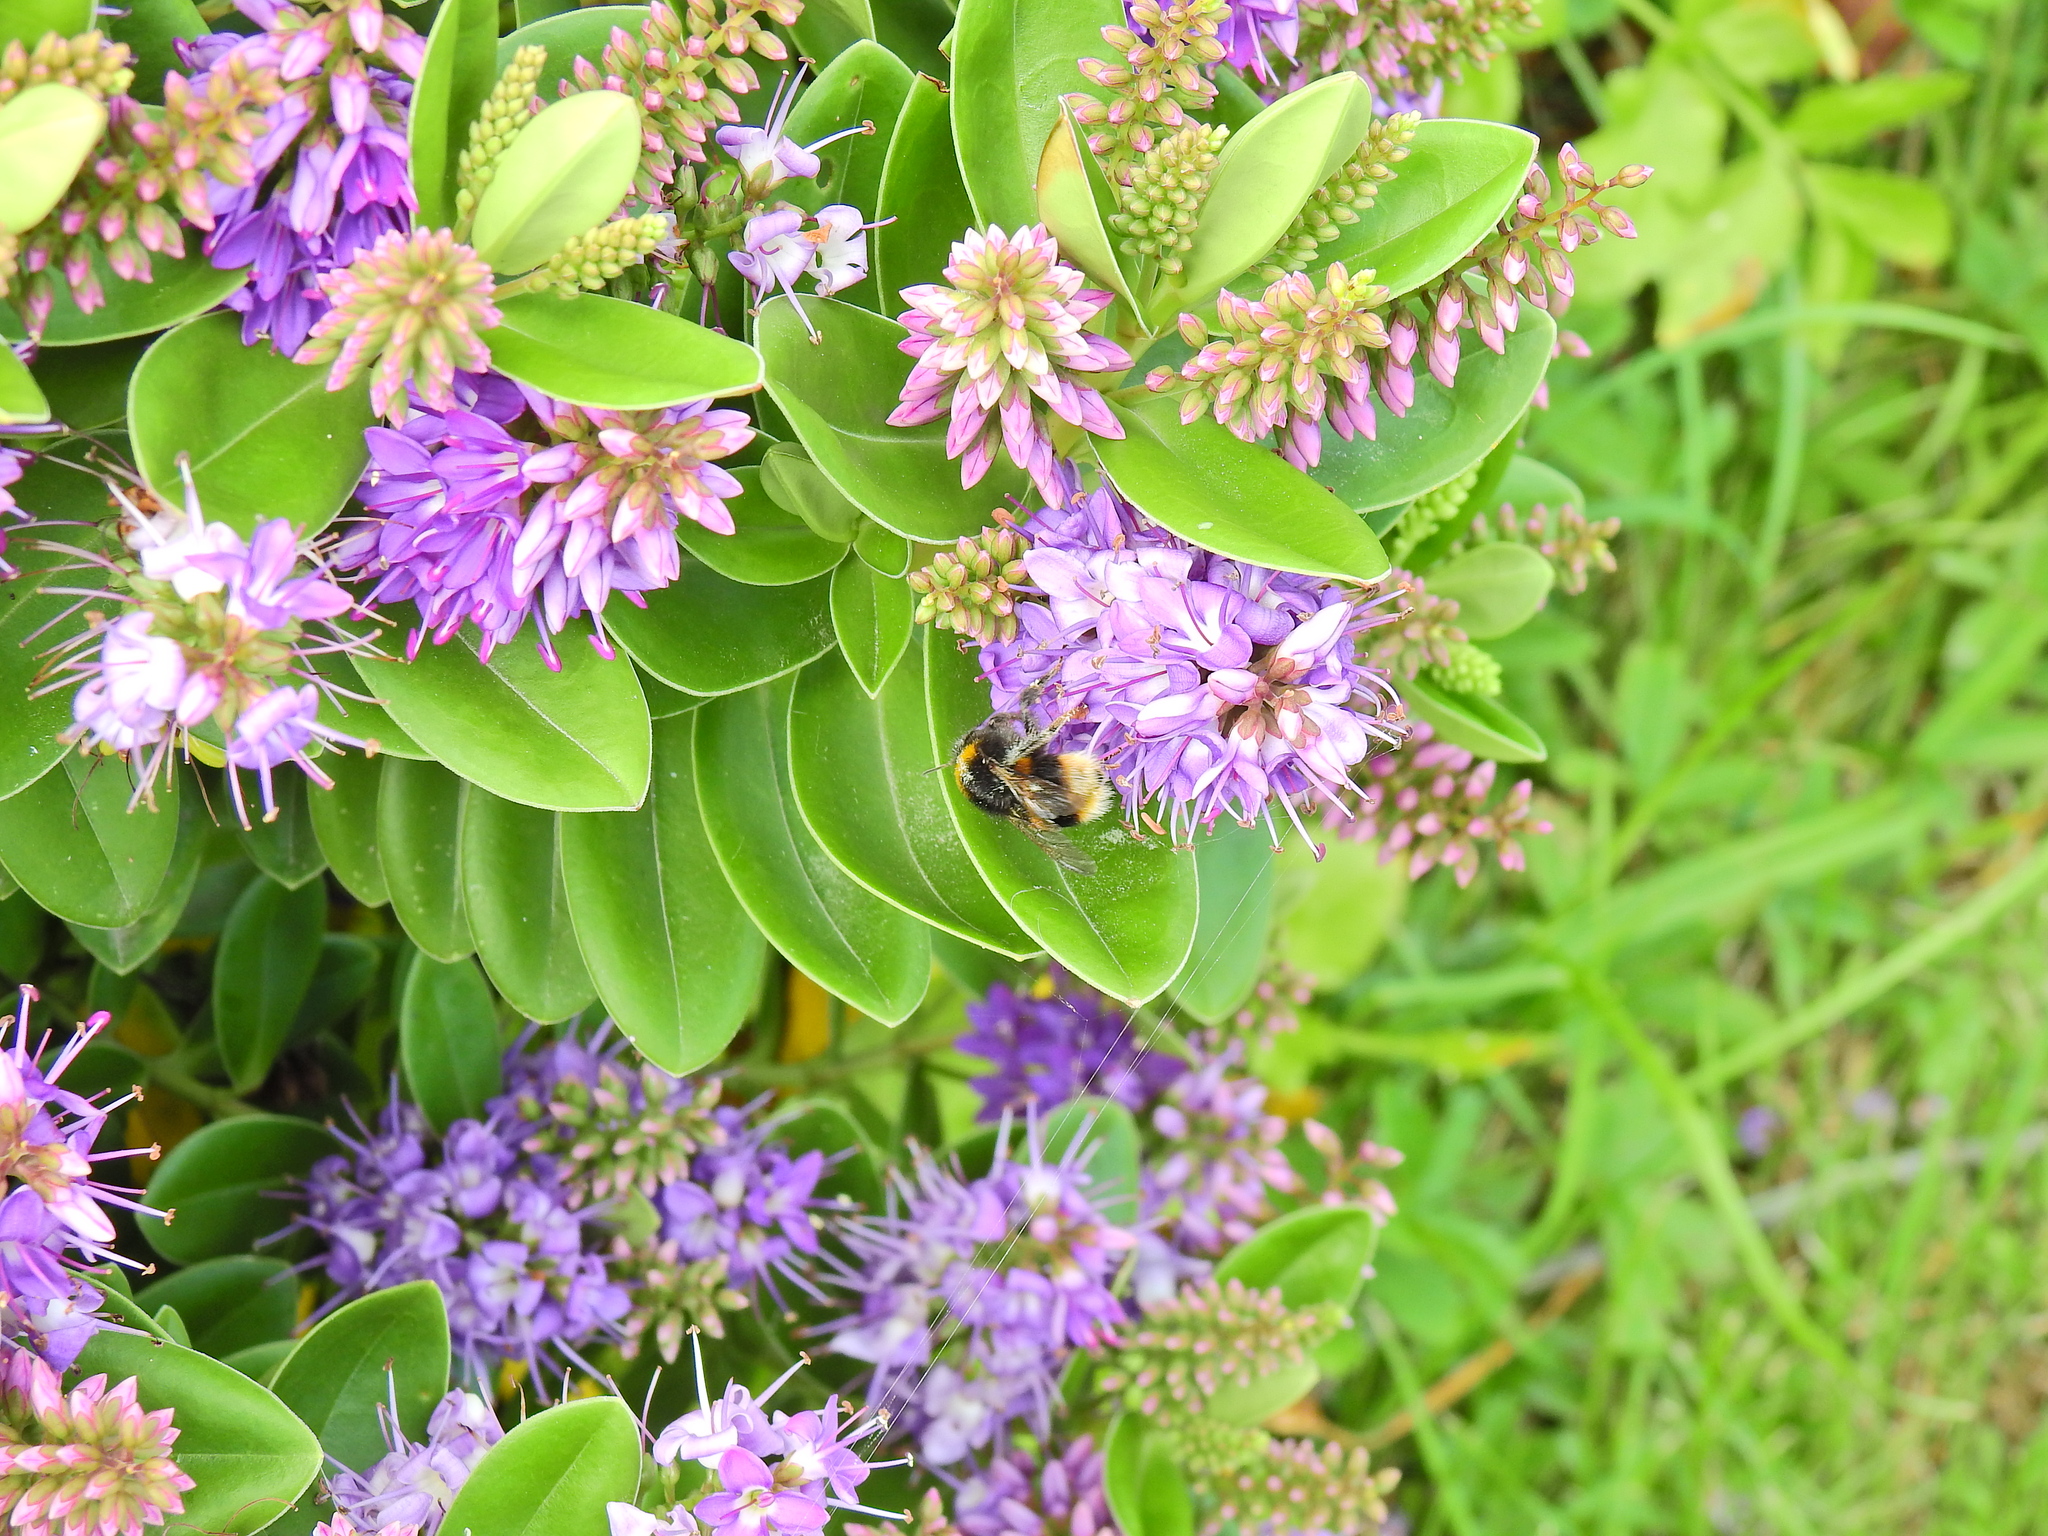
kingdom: Animalia
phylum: Arthropoda
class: Insecta
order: Hymenoptera
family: Apidae
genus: Bombus
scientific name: Bombus terrestris
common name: Buff-tailed bumblebee
